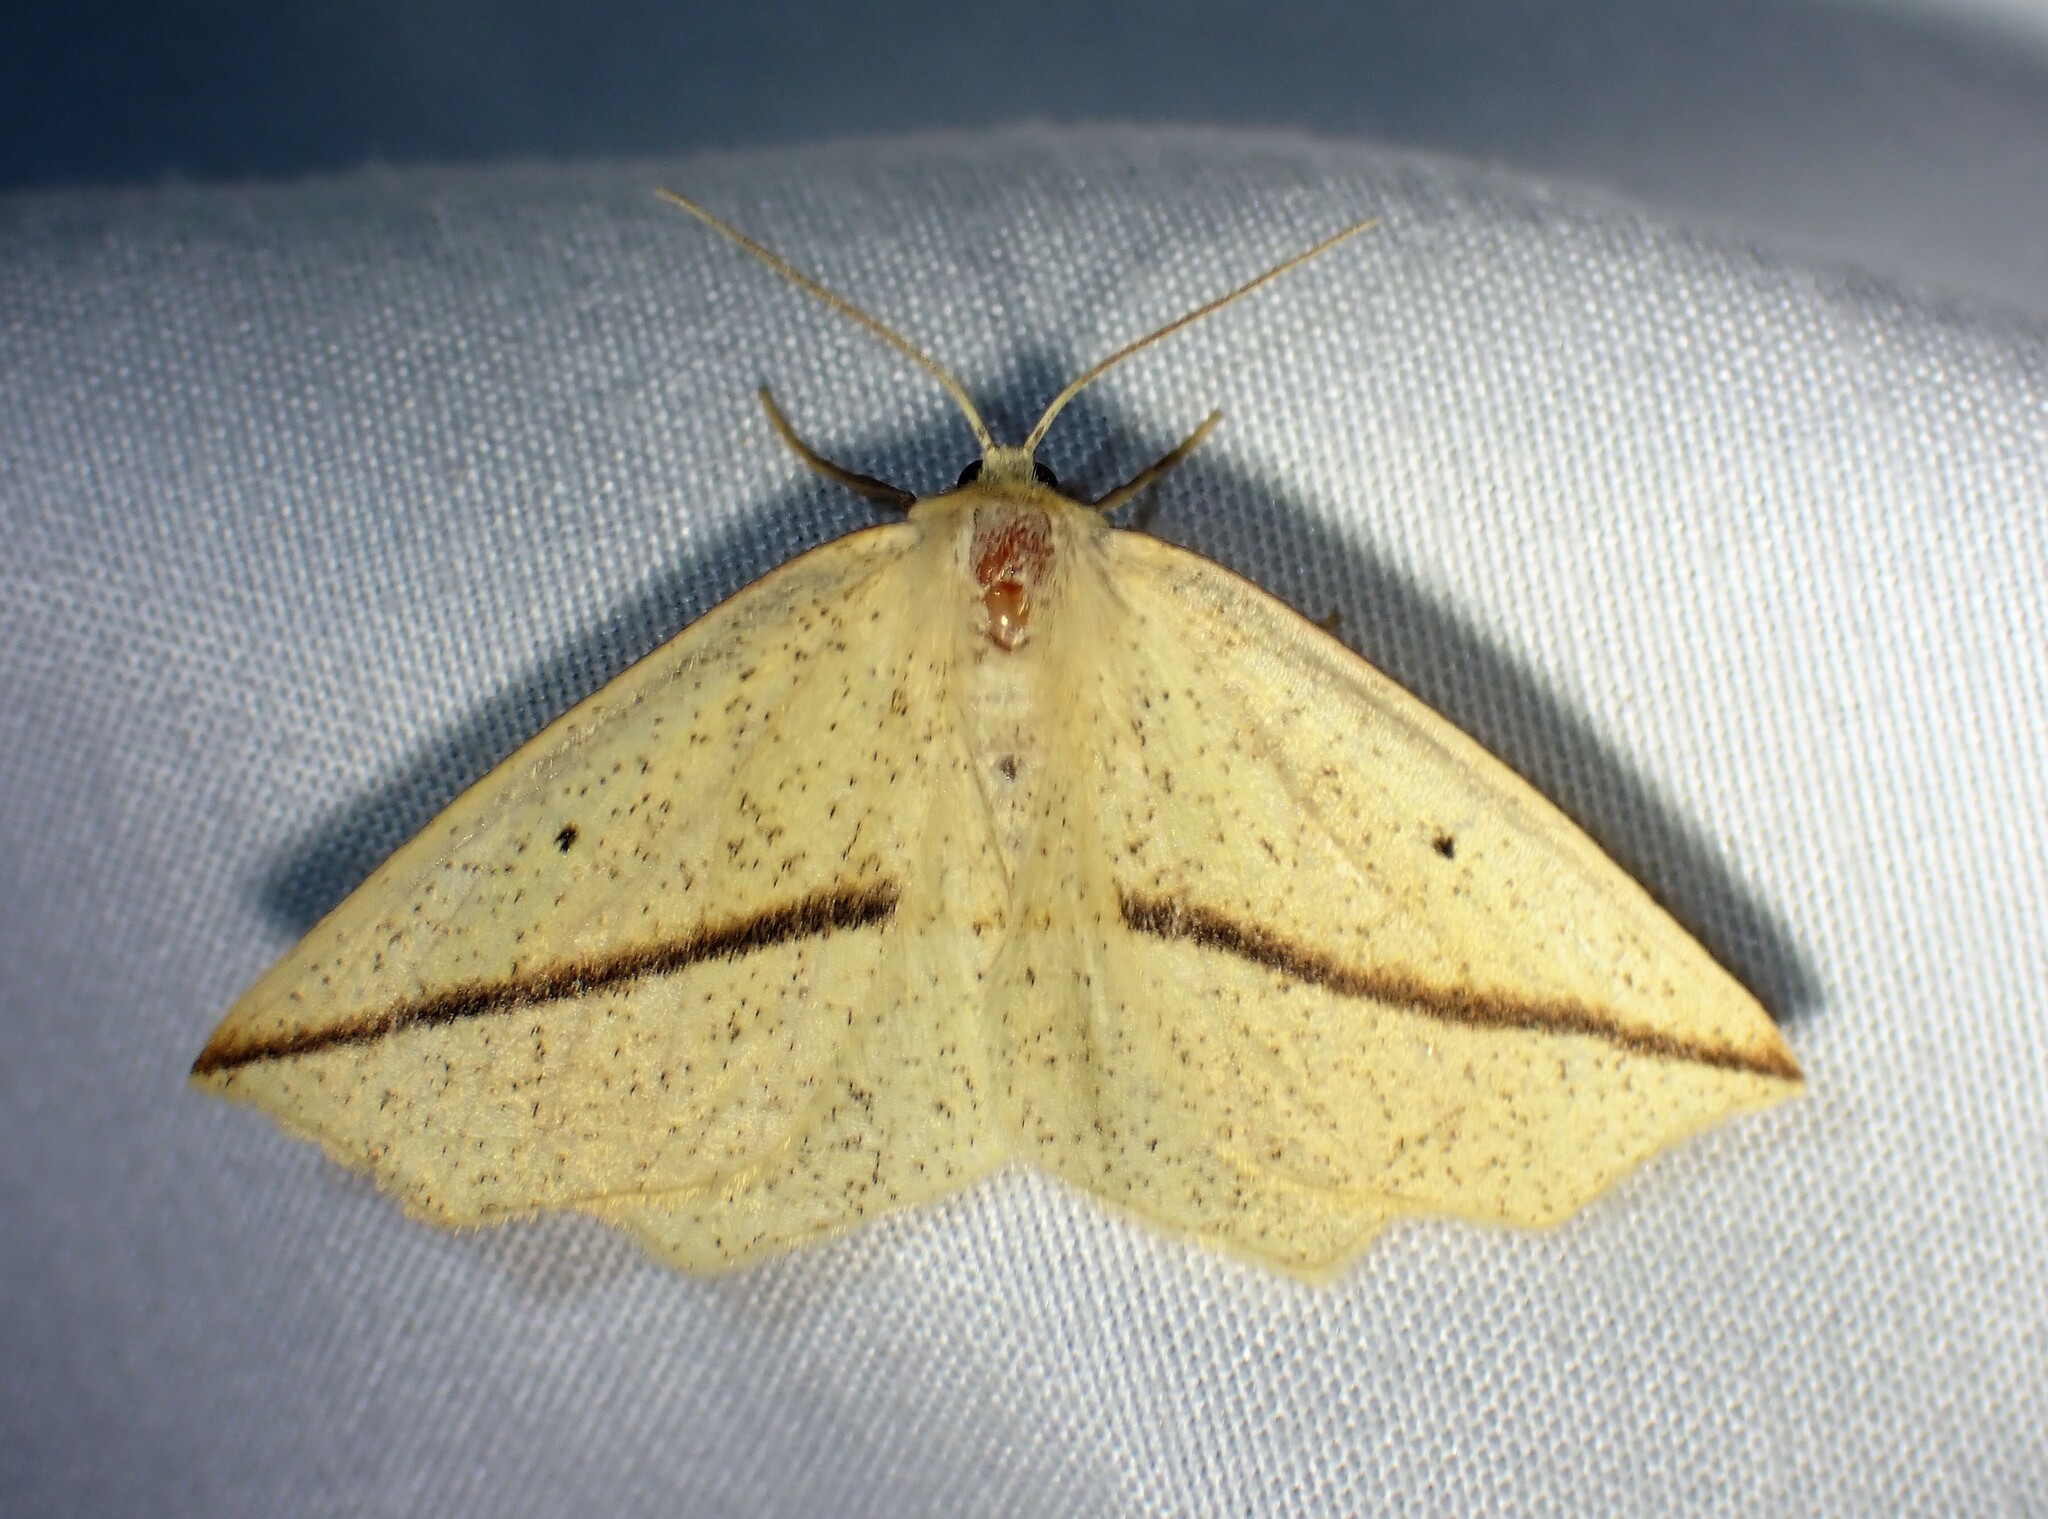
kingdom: Animalia
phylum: Arthropoda
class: Insecta
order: Lepidoptera
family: Geometridae
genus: Tetracis
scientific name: Tetracis crocallata
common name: Yellow slant-line
